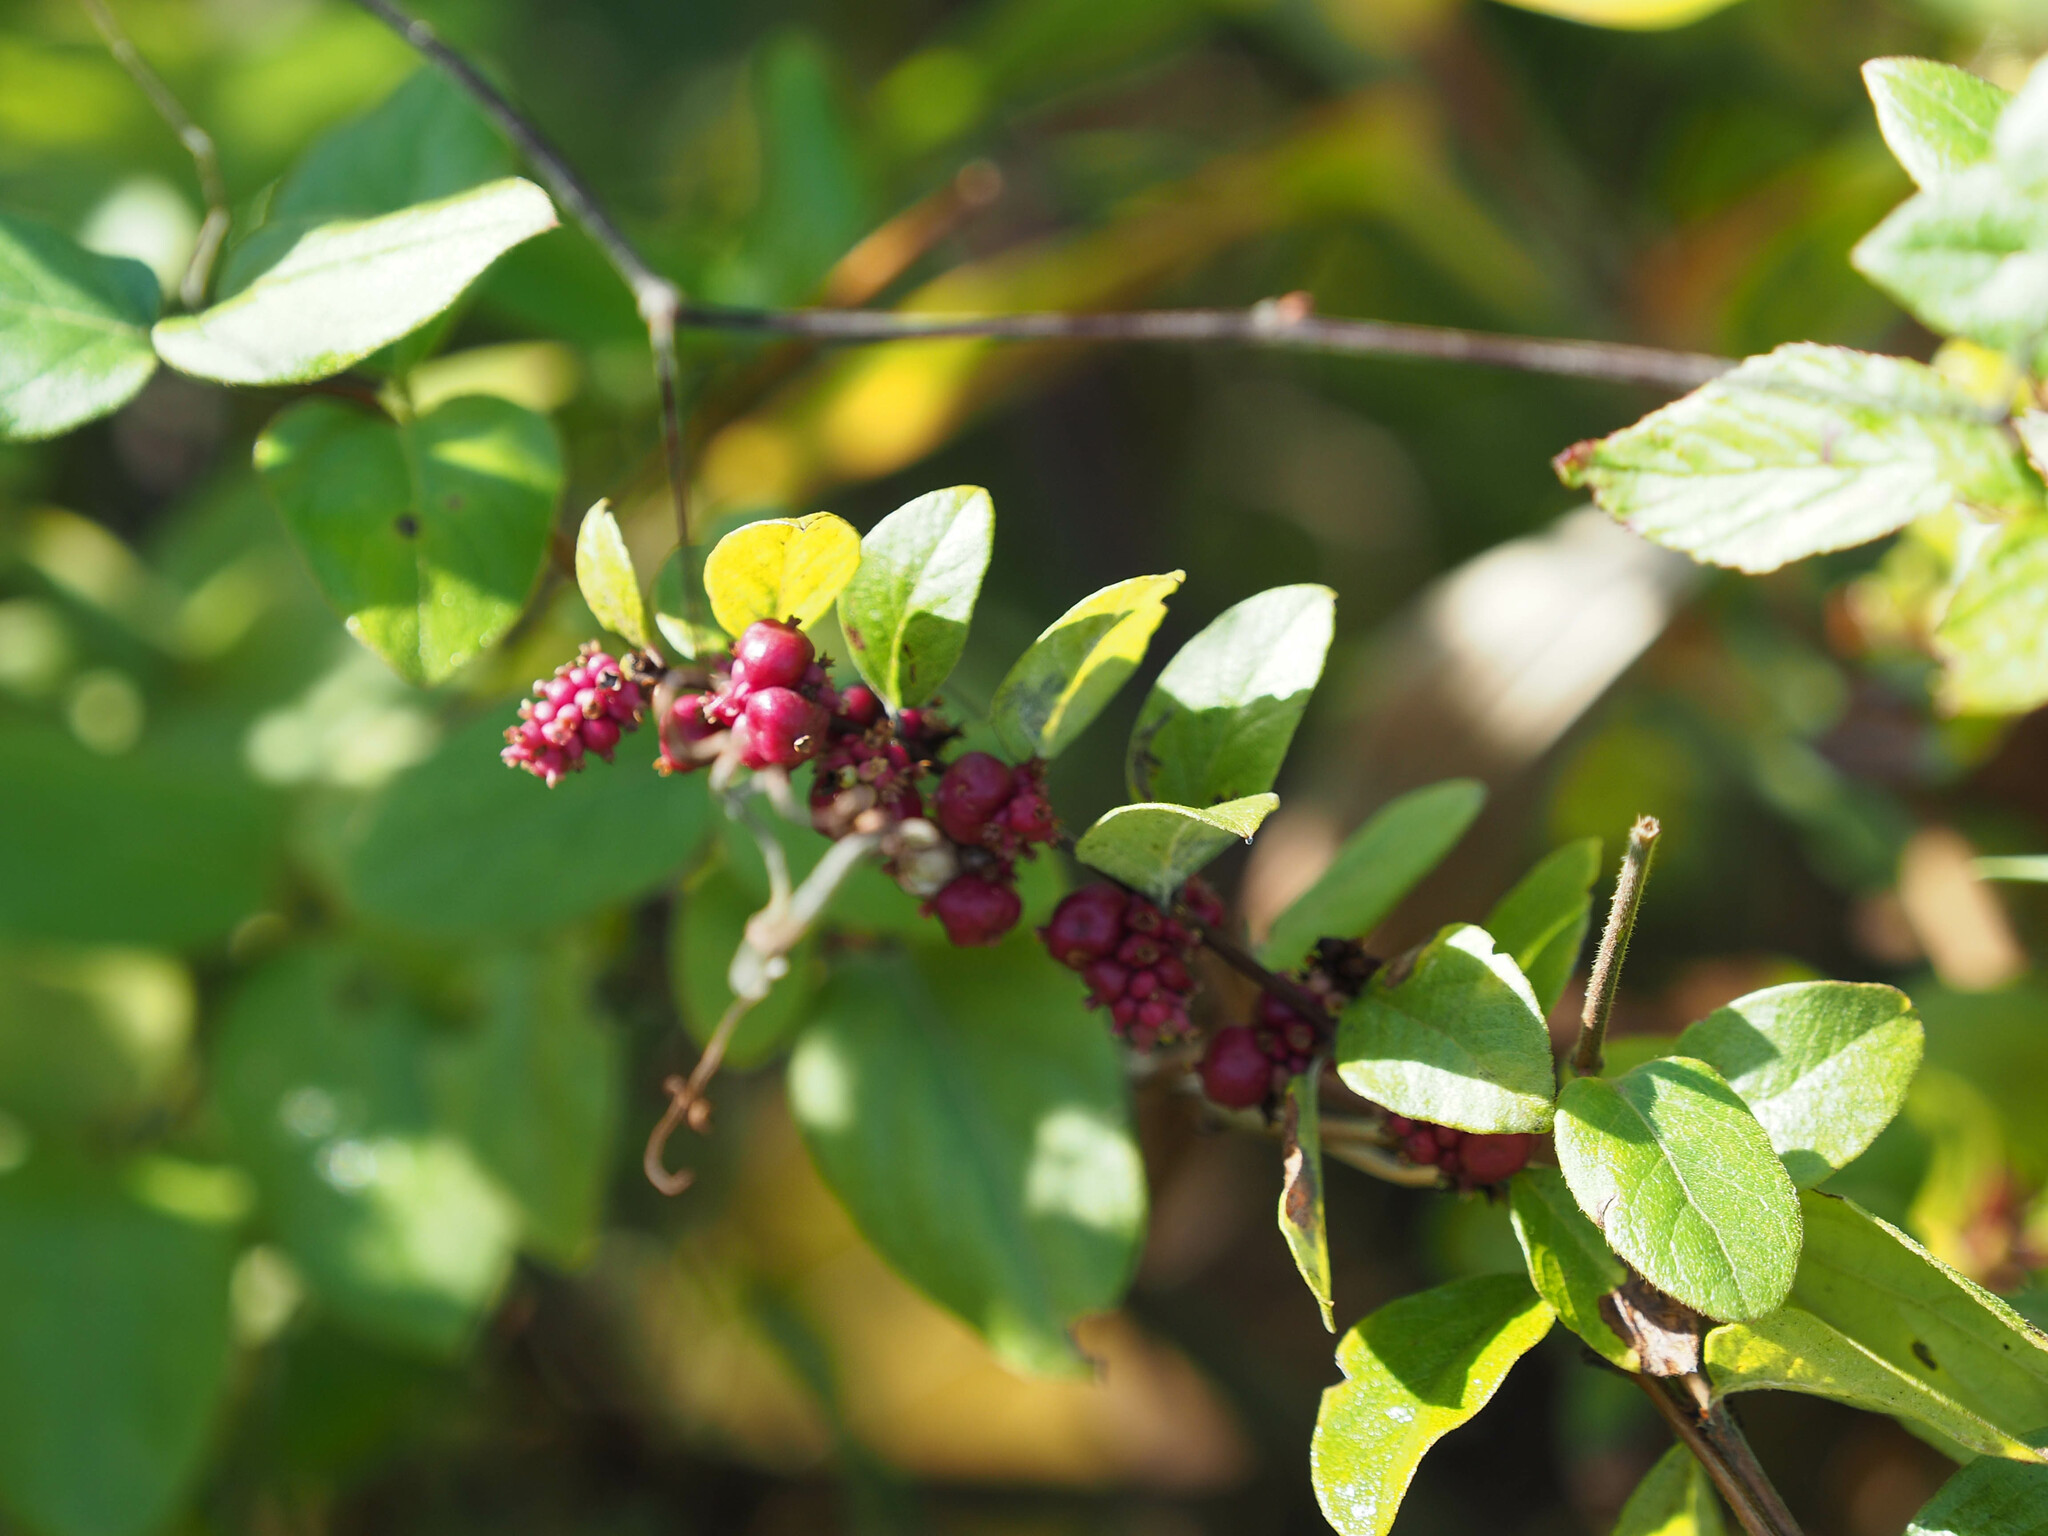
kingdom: Plantae
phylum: Tracheophyta
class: Magnoliopsida
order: Dipsacales
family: Caprifoliaceae
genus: Symphoricarpos
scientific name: Symphoricarpos orbiculatus
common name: Coralberry
